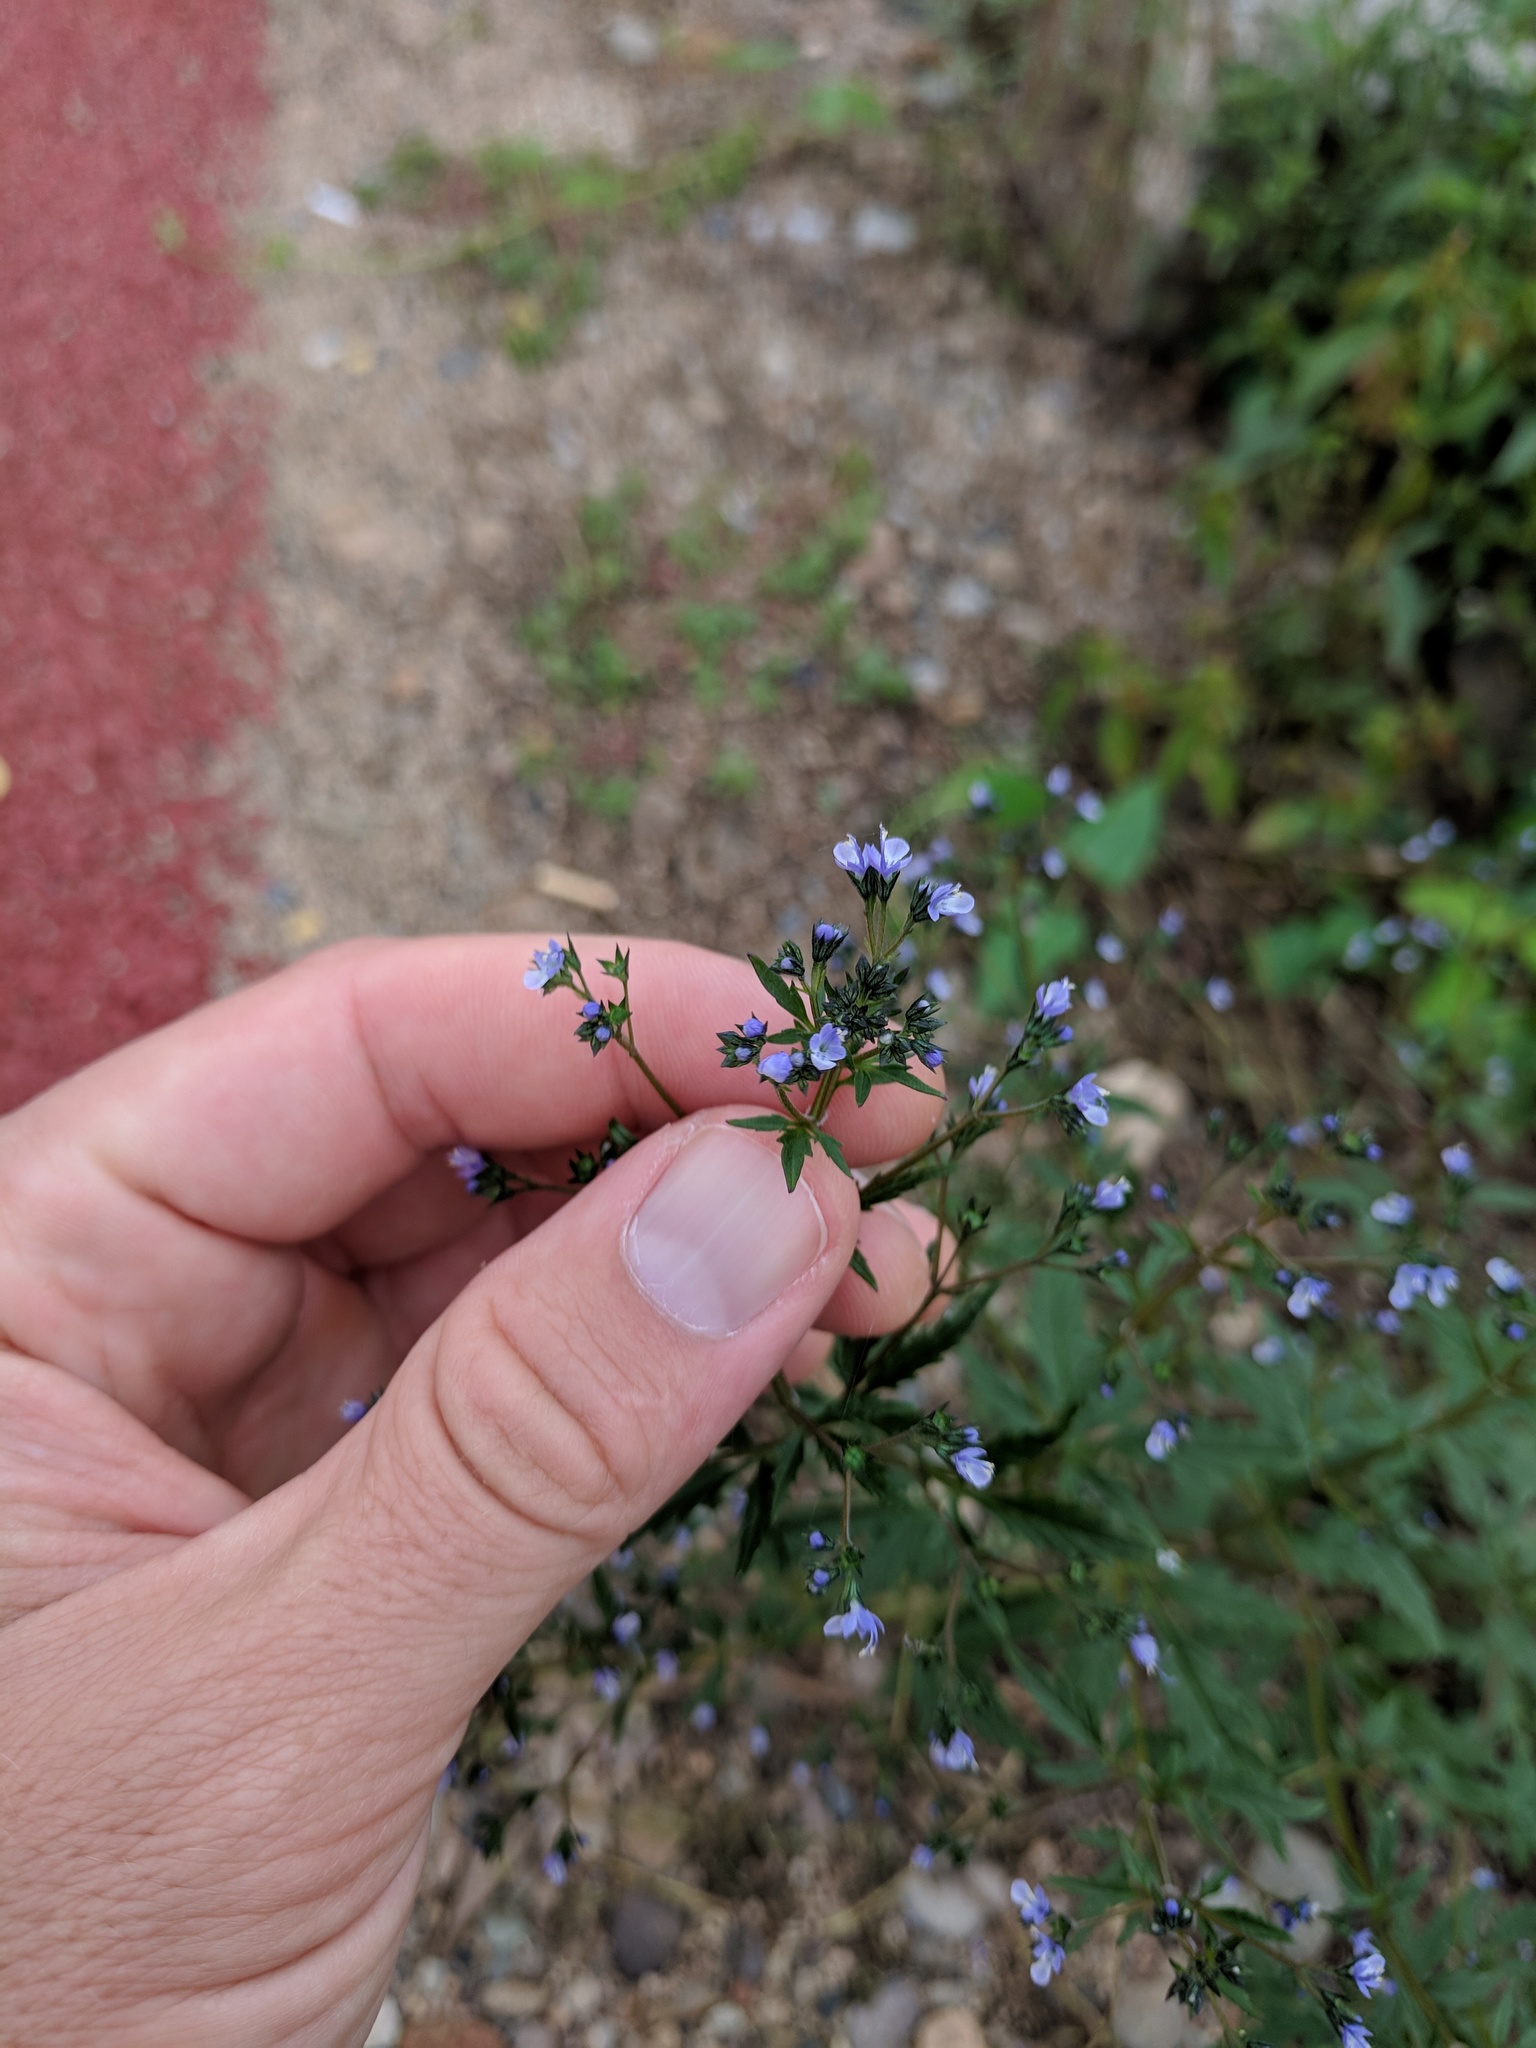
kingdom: Plantae
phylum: Tracheophyta
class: Magnoliopsida
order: Lamiales
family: Lamiaceae
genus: Amethystea
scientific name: Amethystea caerulea
